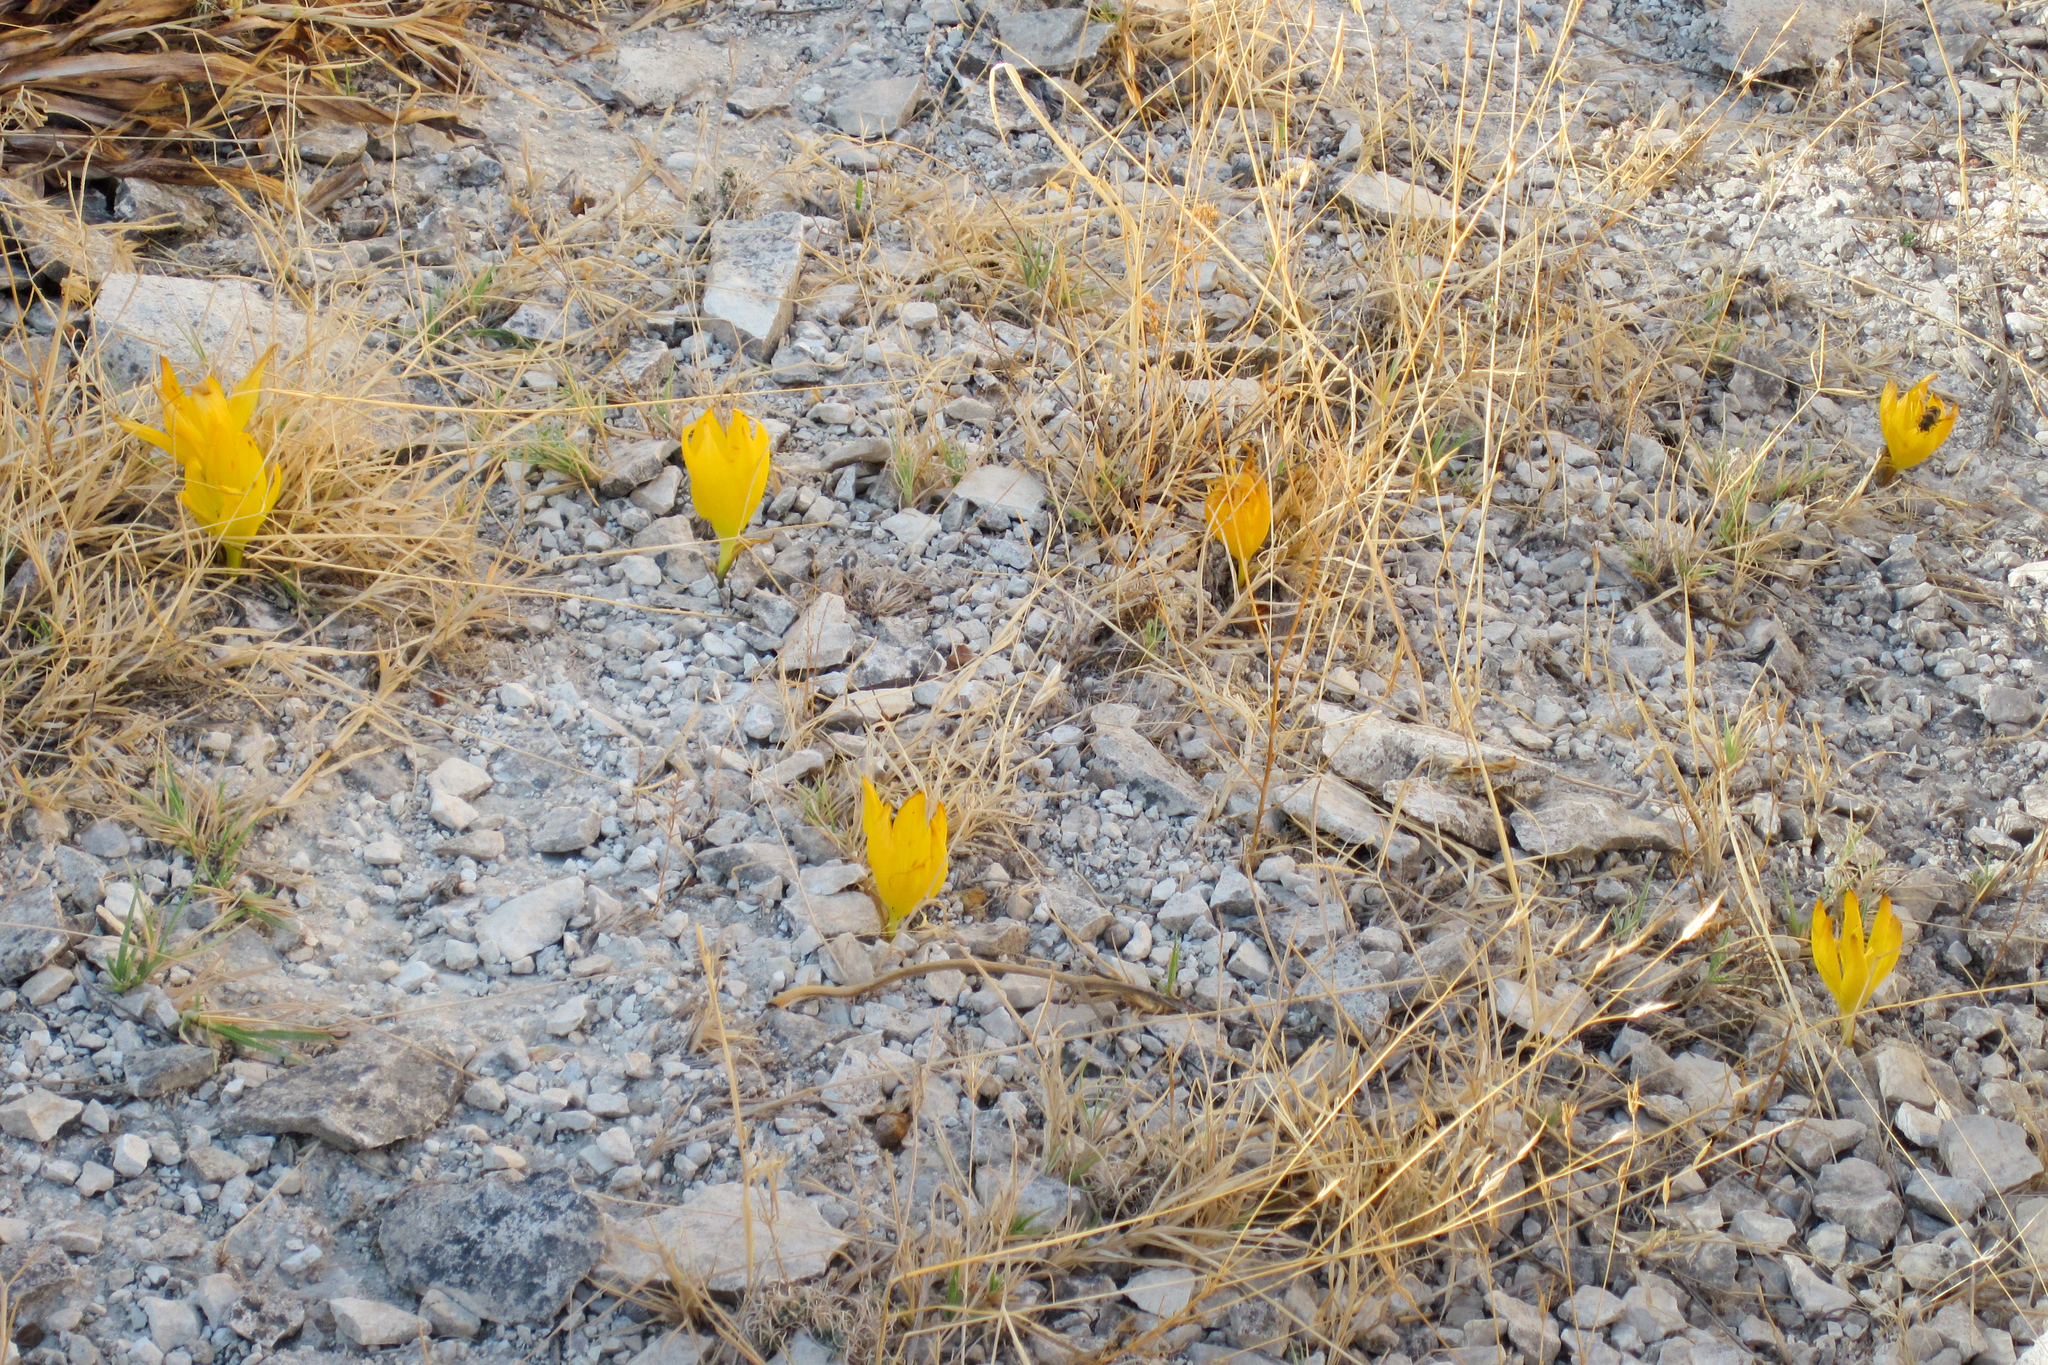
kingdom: Plantae
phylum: Tracheophyta
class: Liliopsida
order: Asparagales
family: Amaryllidaceae
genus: Sternbergia
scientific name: Sternbergia clusiana
